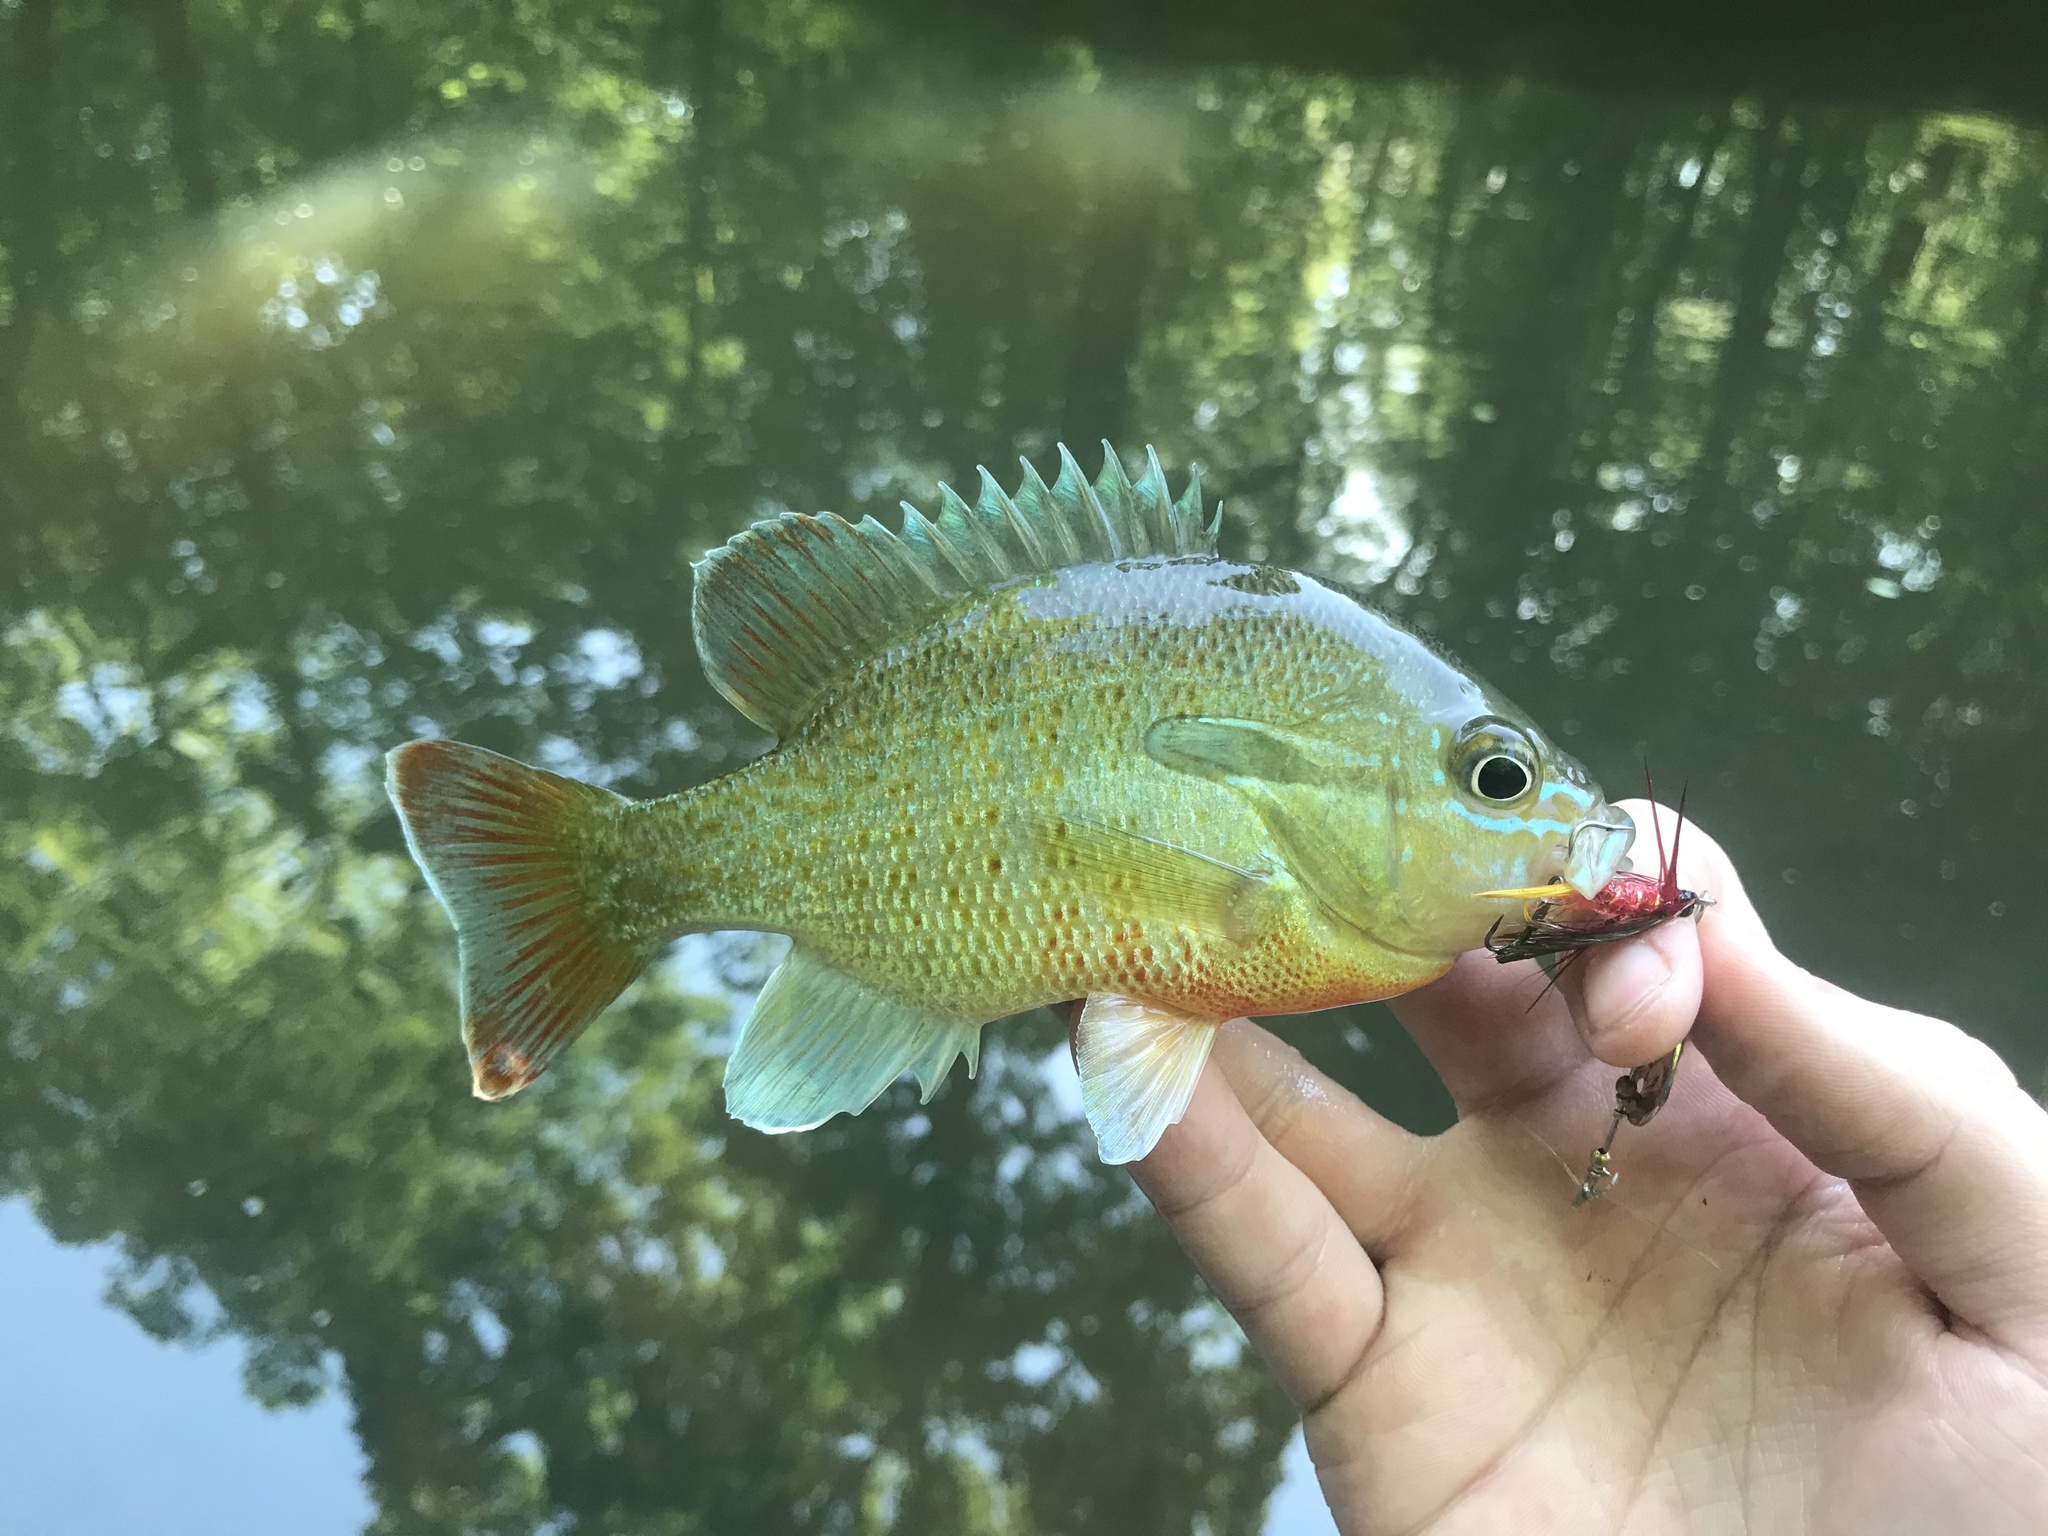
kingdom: Animalia
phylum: Chordata
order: Perciformes
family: Centrarchidae
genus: Lepomis
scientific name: Lepomis auritus
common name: Redbreast sunfish
